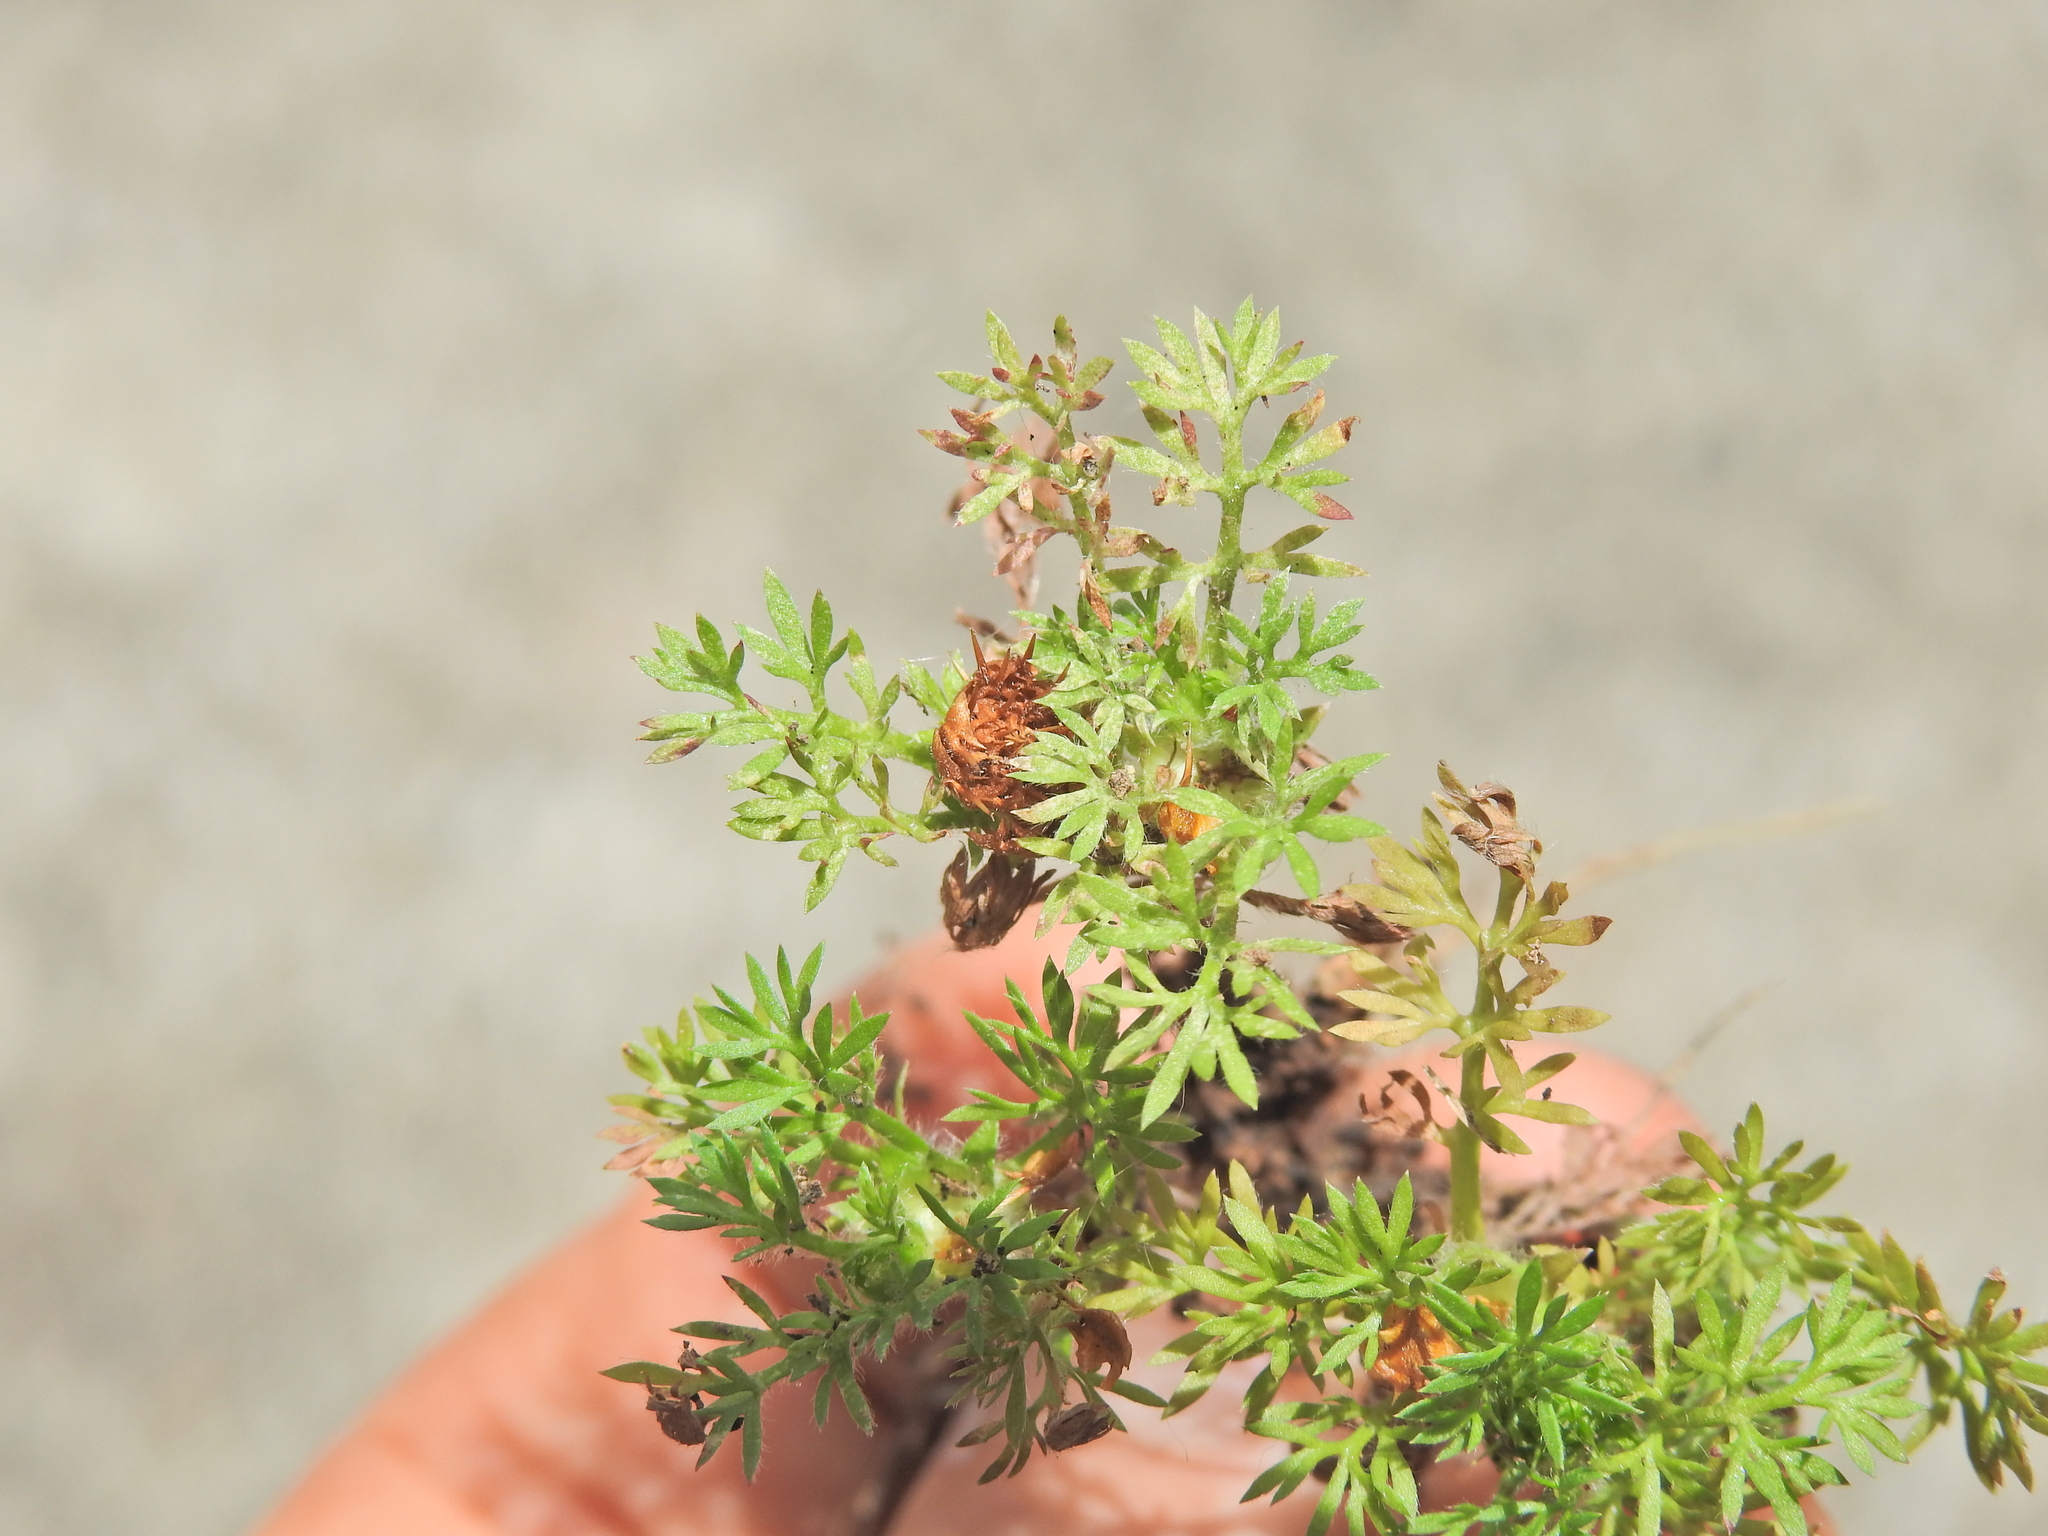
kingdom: Plantae
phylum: Tracheophyta
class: Magnoliopsida
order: Asterales
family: Asteraceae
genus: Soliva
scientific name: Soliva sessilis
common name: Field burrweed
